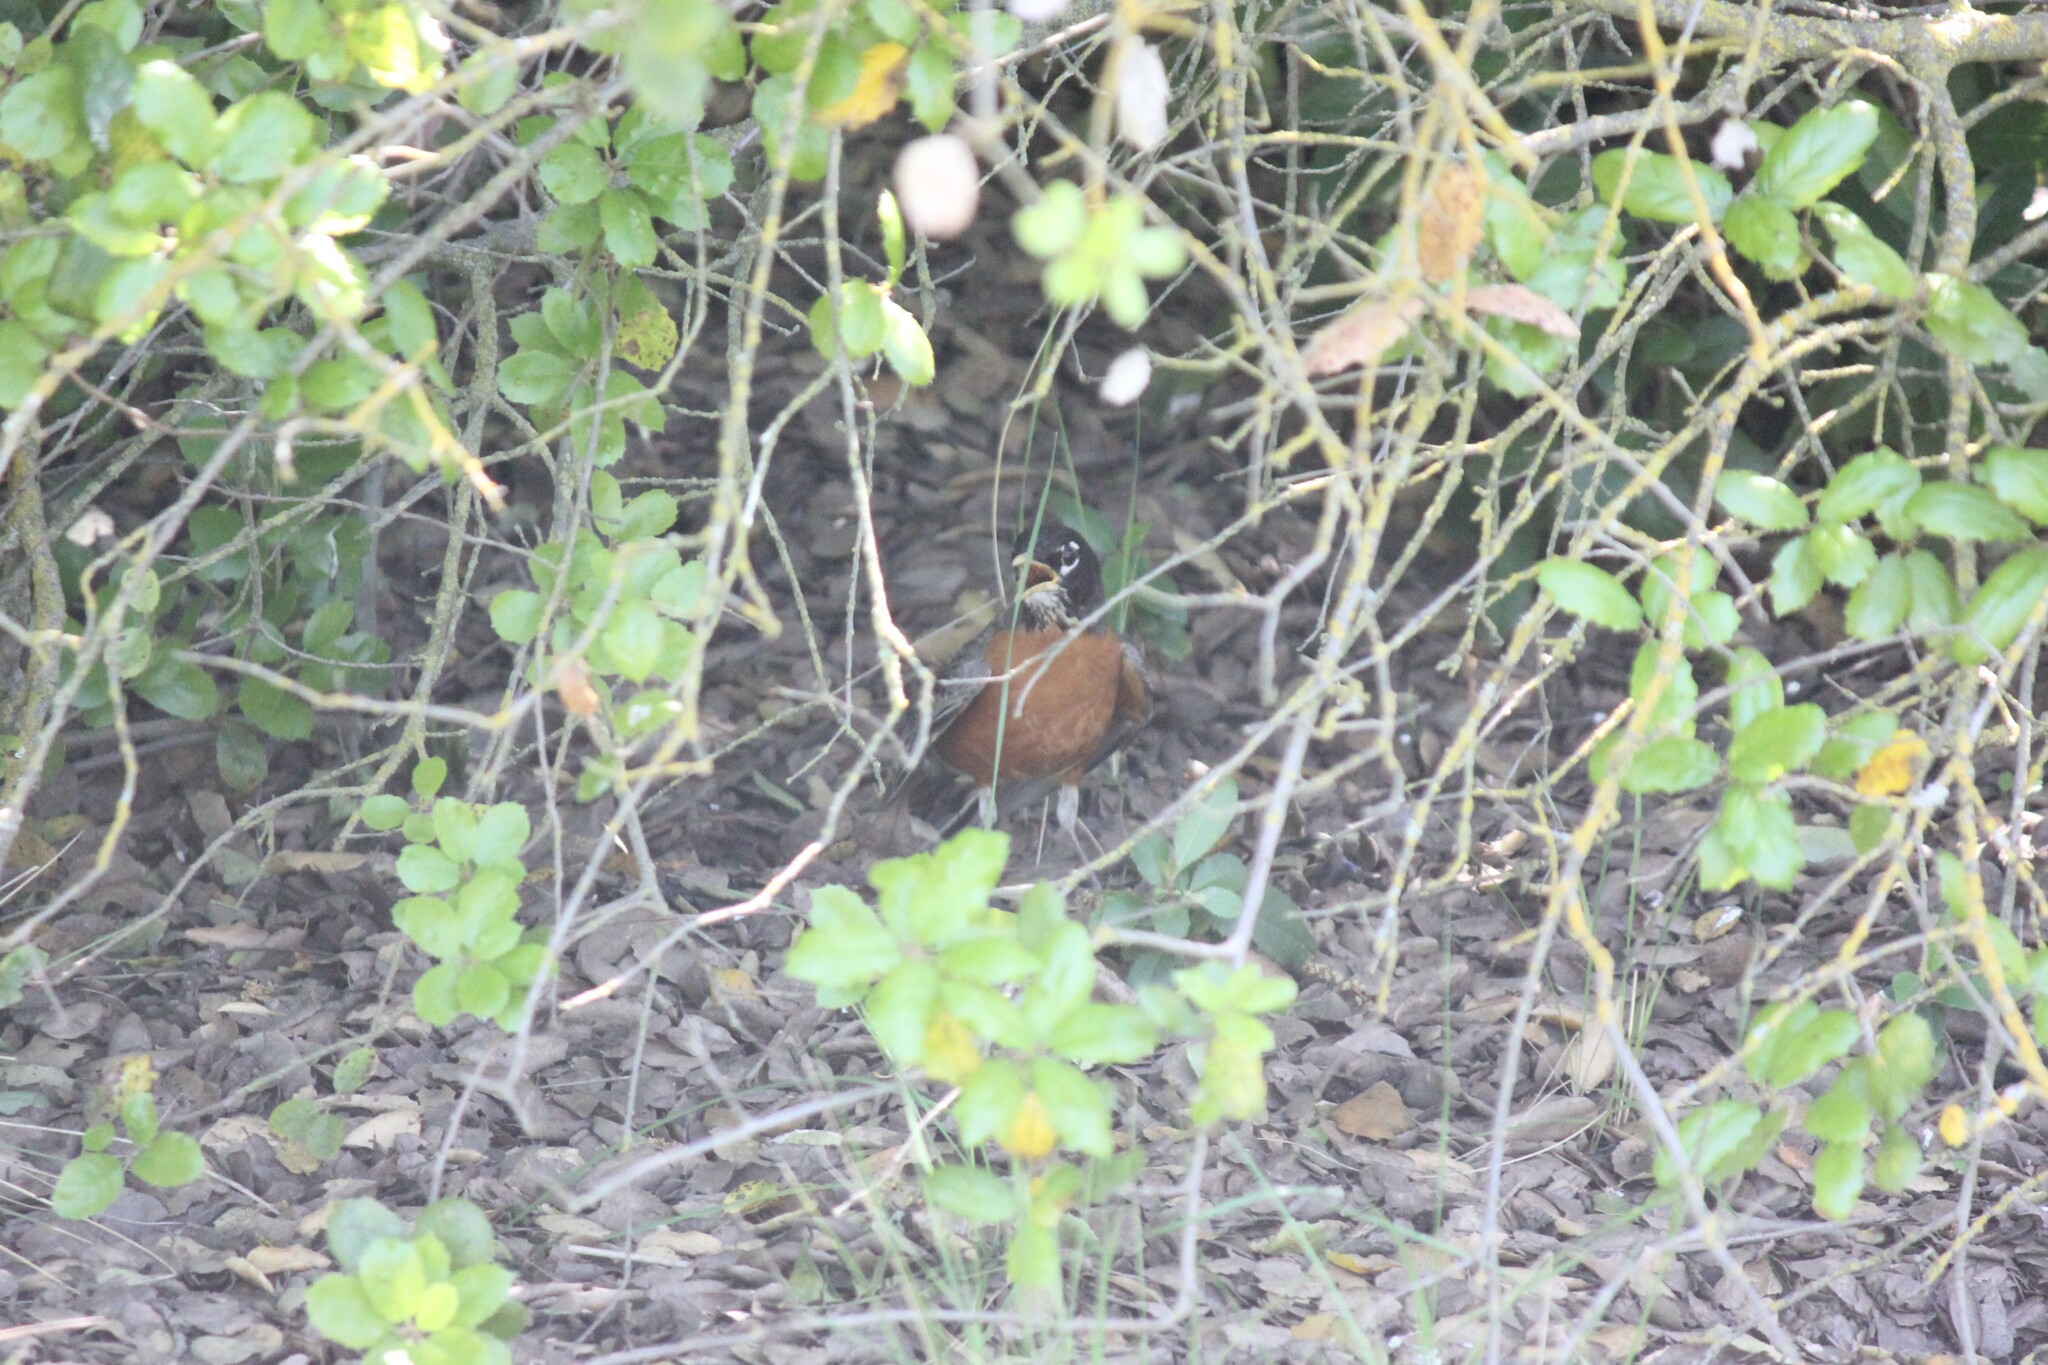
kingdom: Animalia
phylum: Chordata
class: Aves
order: Passeriformes
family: Turdidae
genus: Turdus
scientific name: Turdus migratorius
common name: American robin
